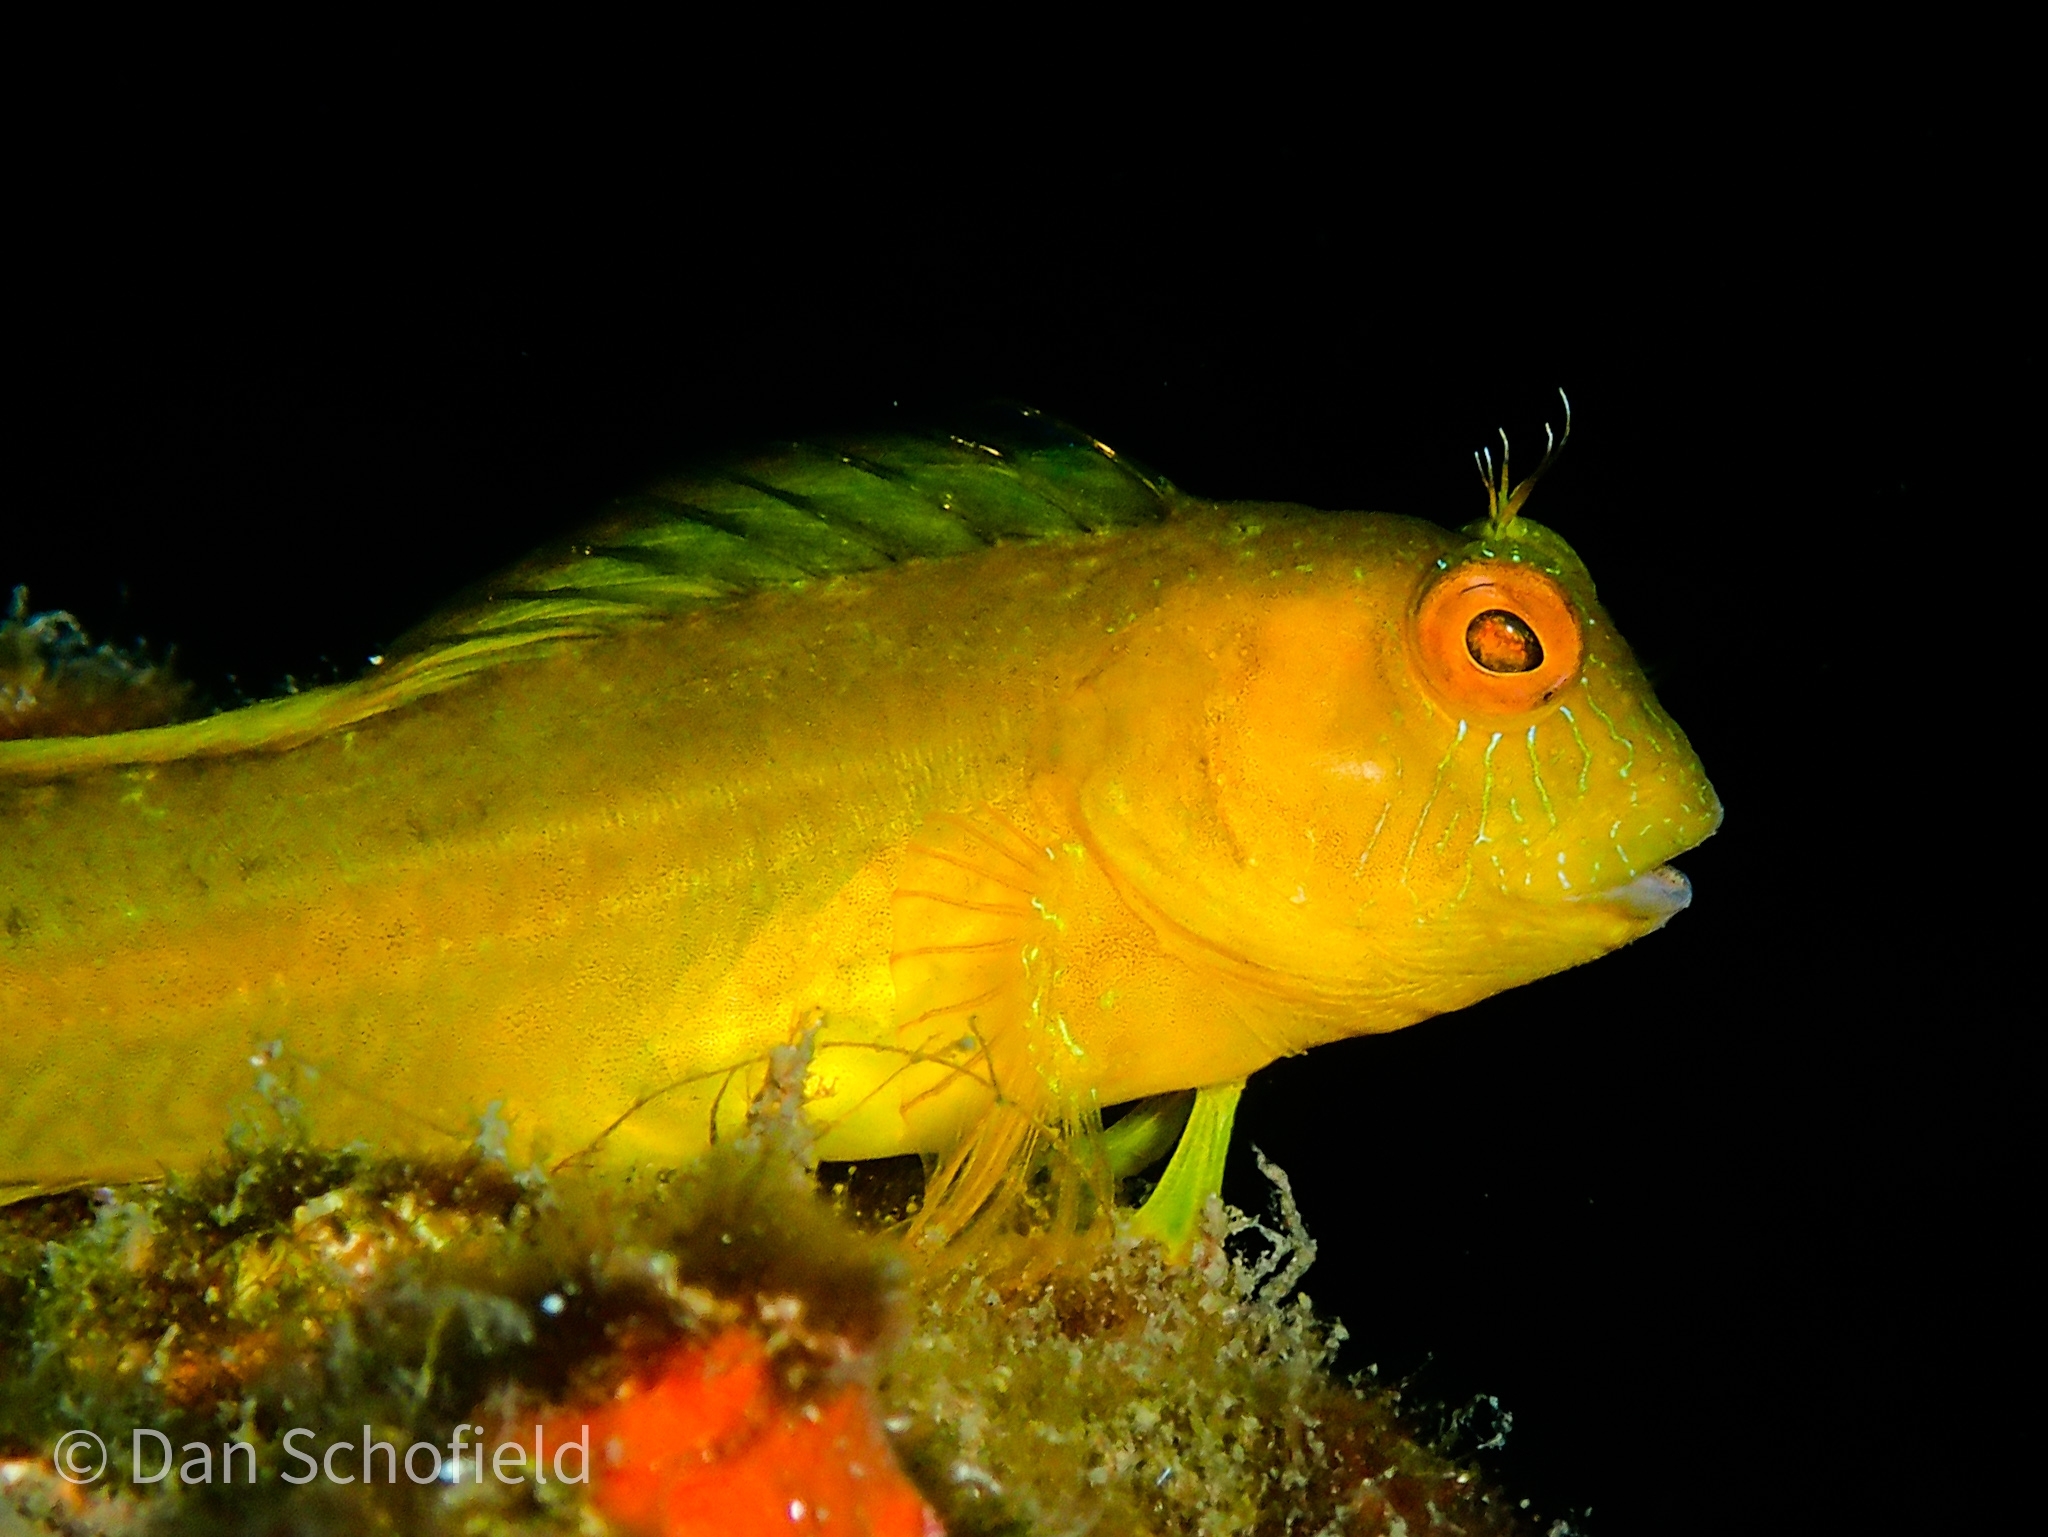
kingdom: Animalia
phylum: Chordata
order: Perciformes
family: Blenniidae
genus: Parablennius
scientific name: Parablennius marmoreus
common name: Seaweed blenny
